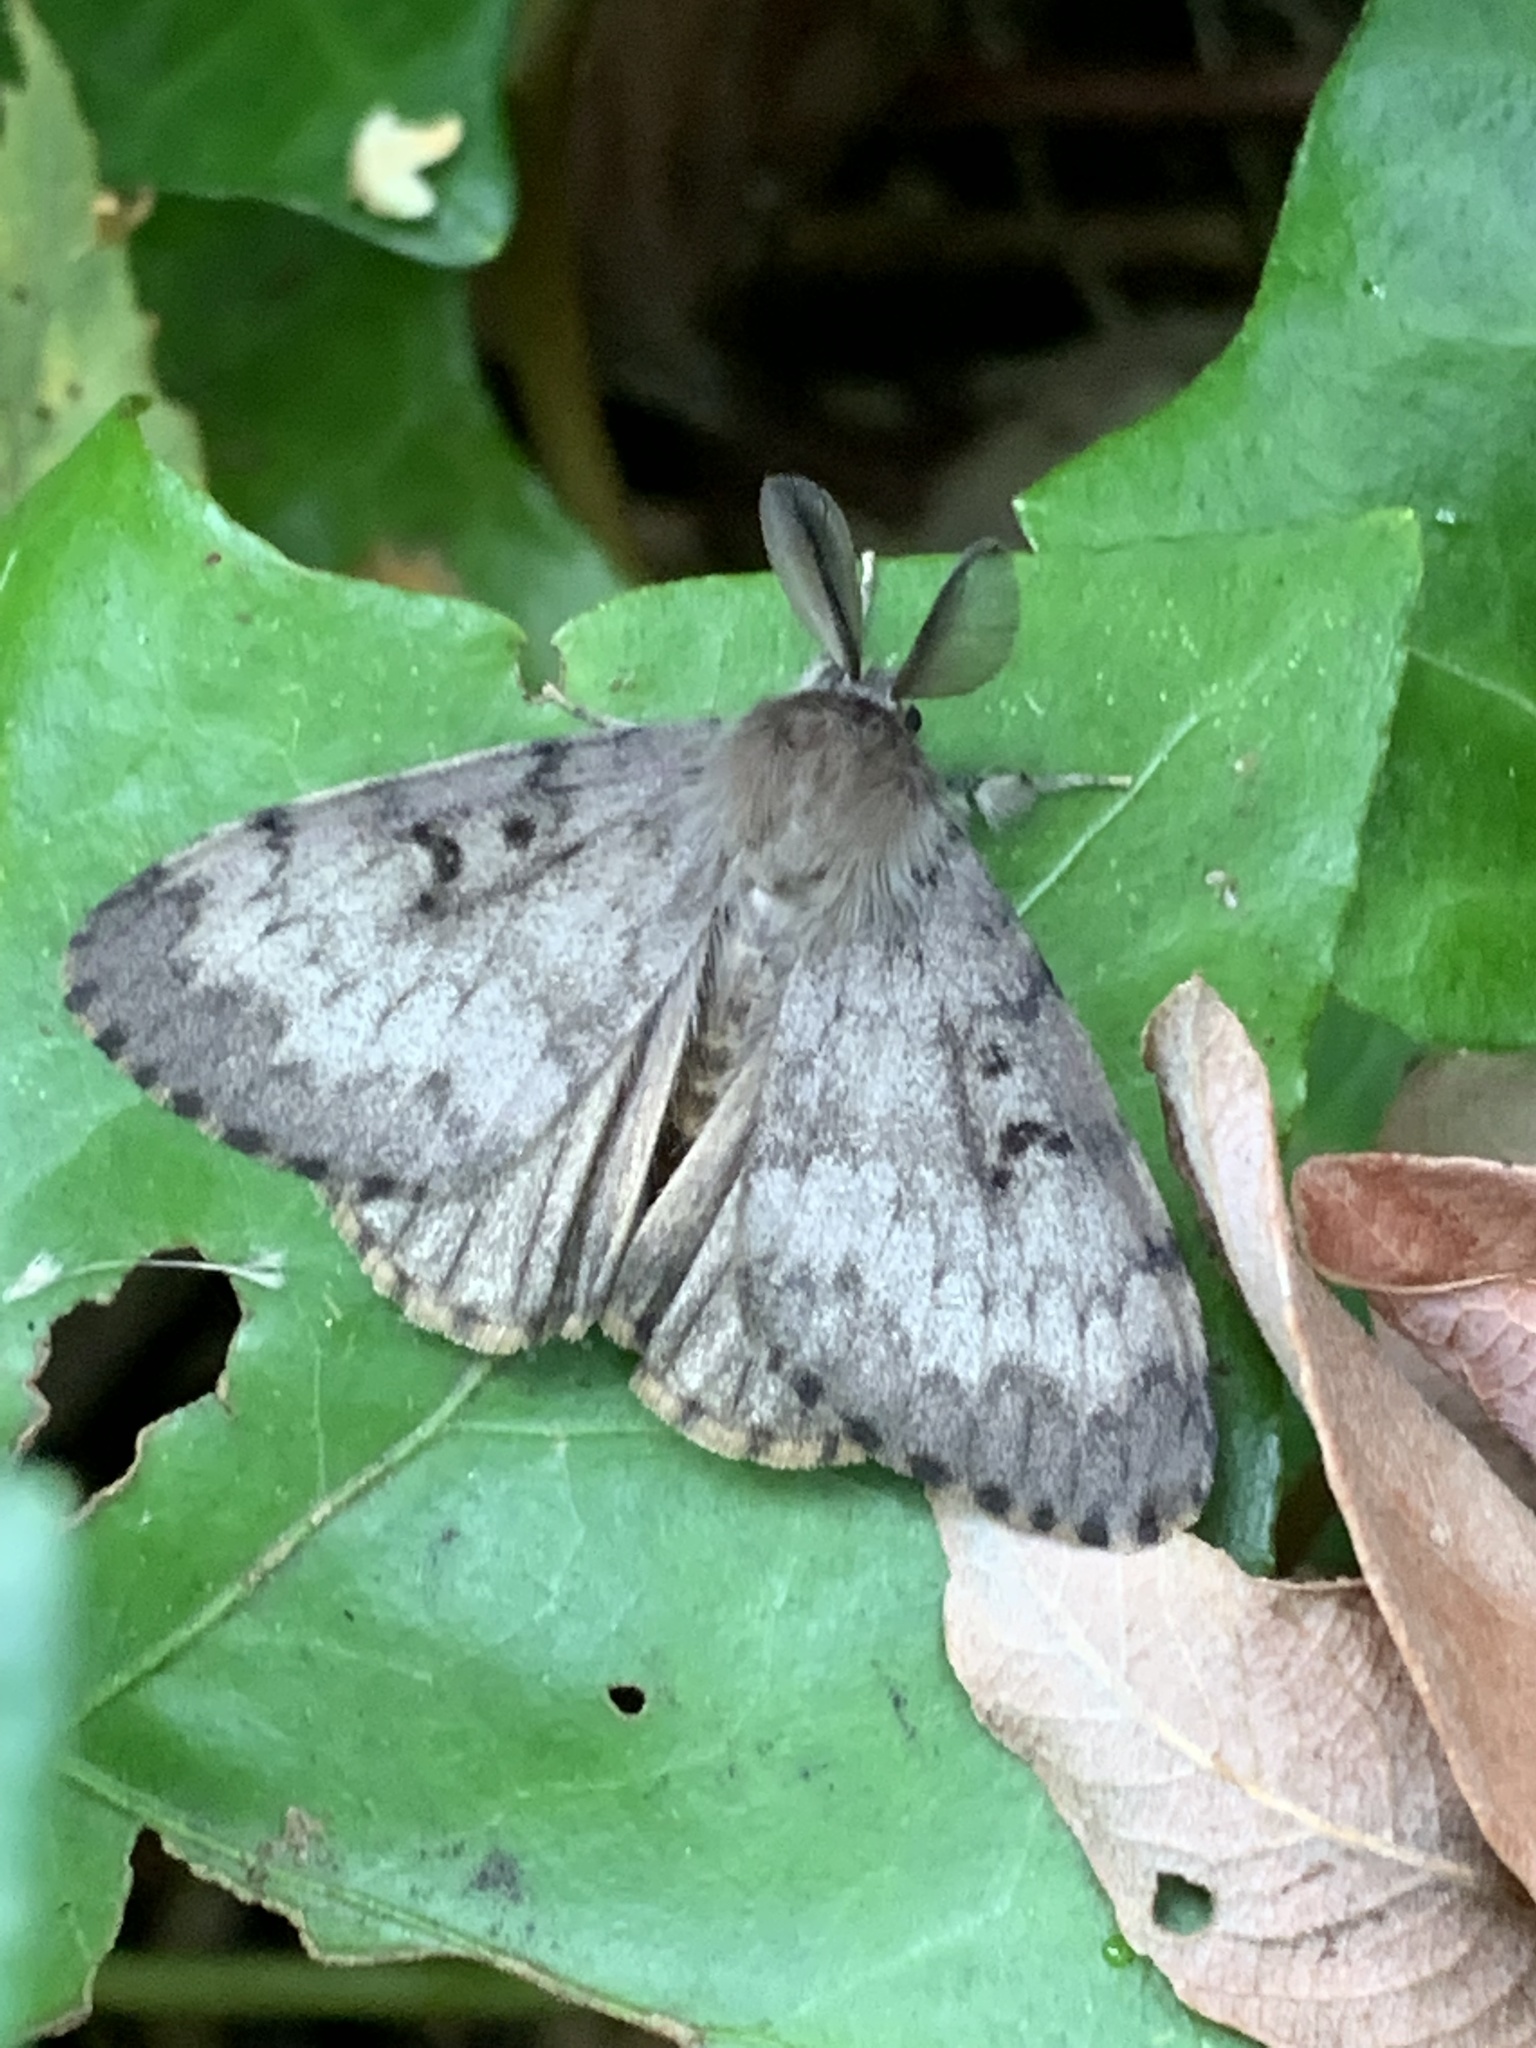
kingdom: Animalia
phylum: Arthropoda
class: Insecta
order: Lepidoptera
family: Erebidae
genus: Lymantria
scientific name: Lymantria dispar
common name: Gypsy moth
